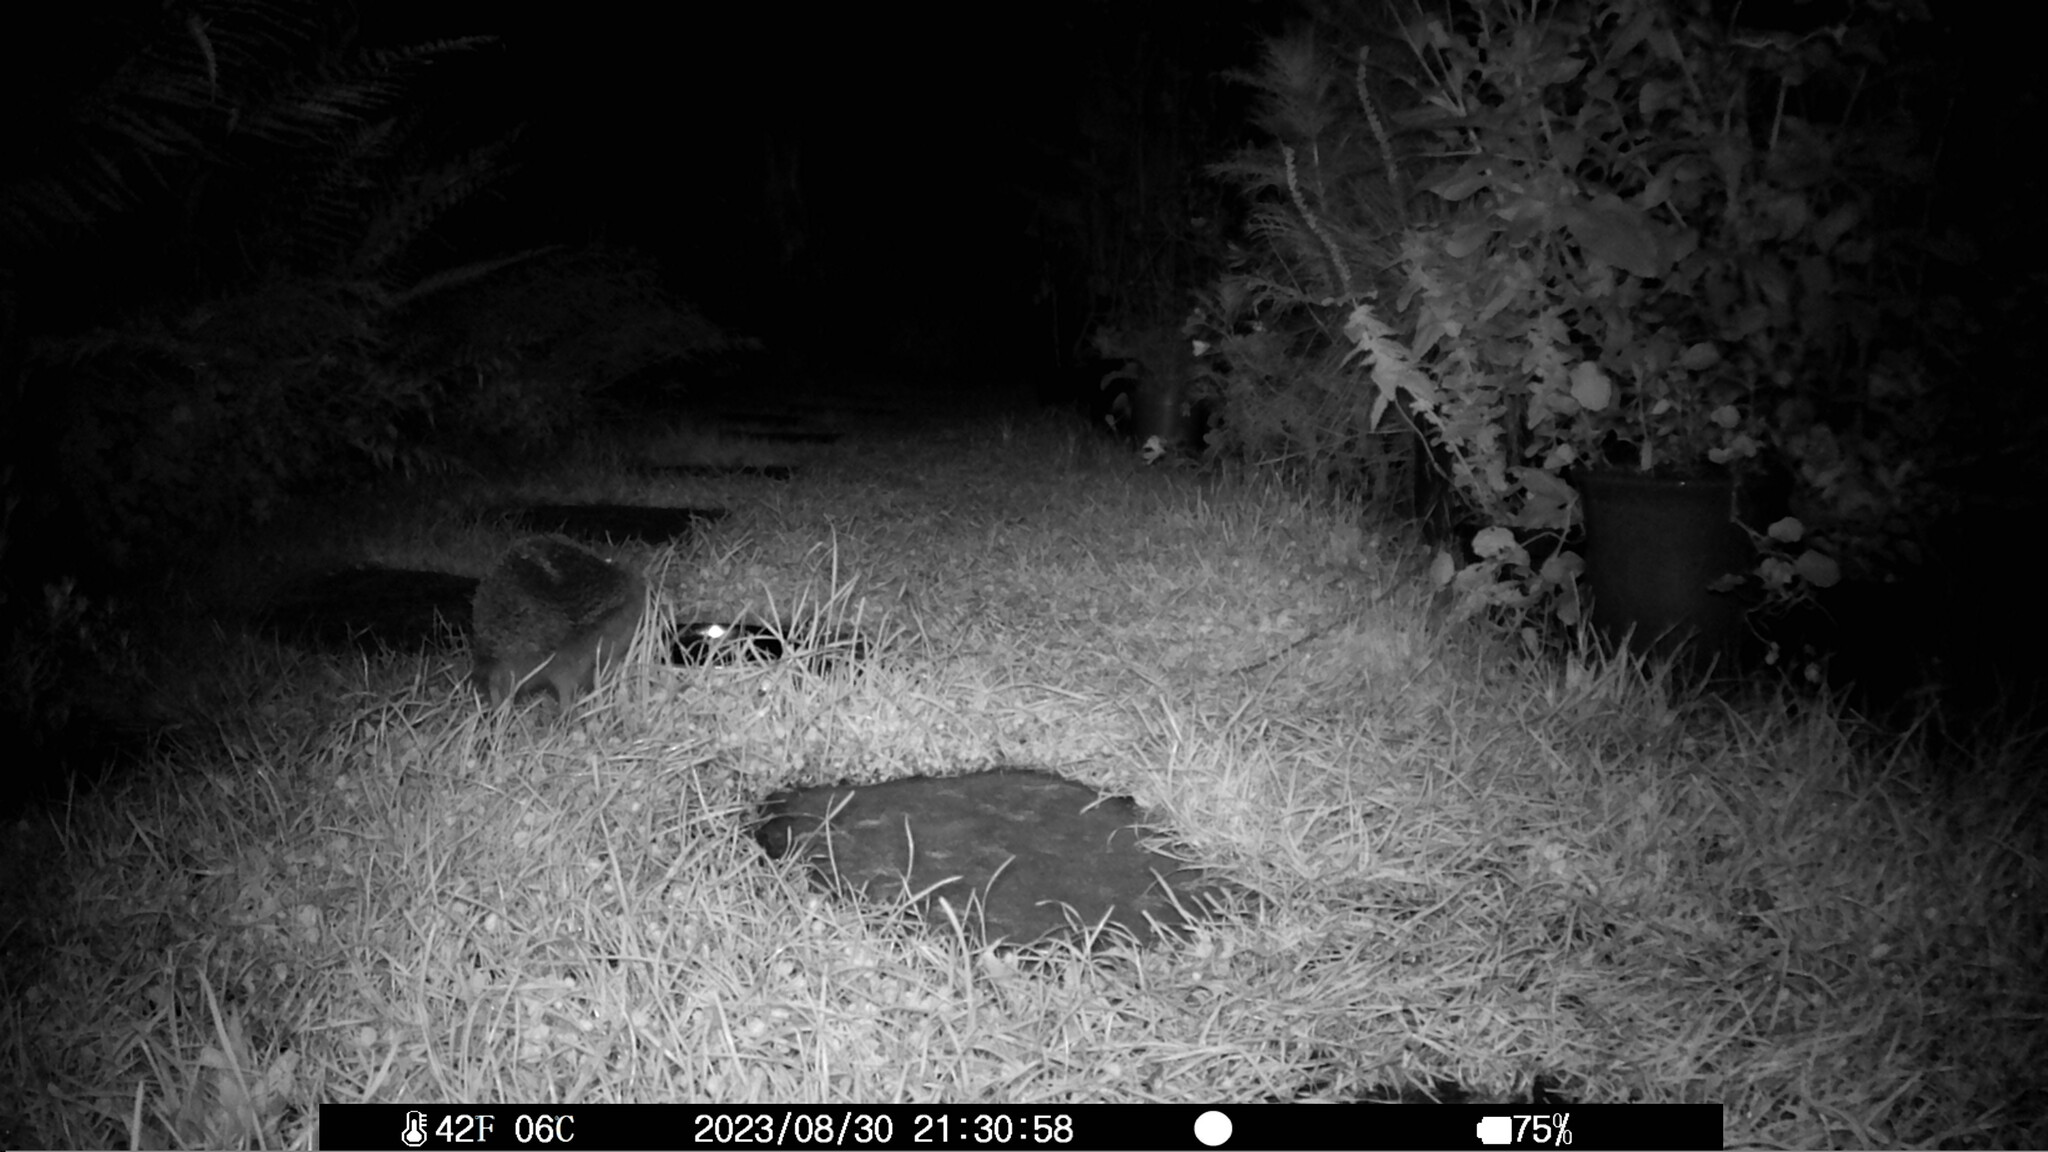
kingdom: Animalia
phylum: Chordata
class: Mammalia
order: Erinaceomorpha
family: Erinaceidae
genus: Erinaceus
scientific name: Erinaceus europaeus
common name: West european hedgehog
